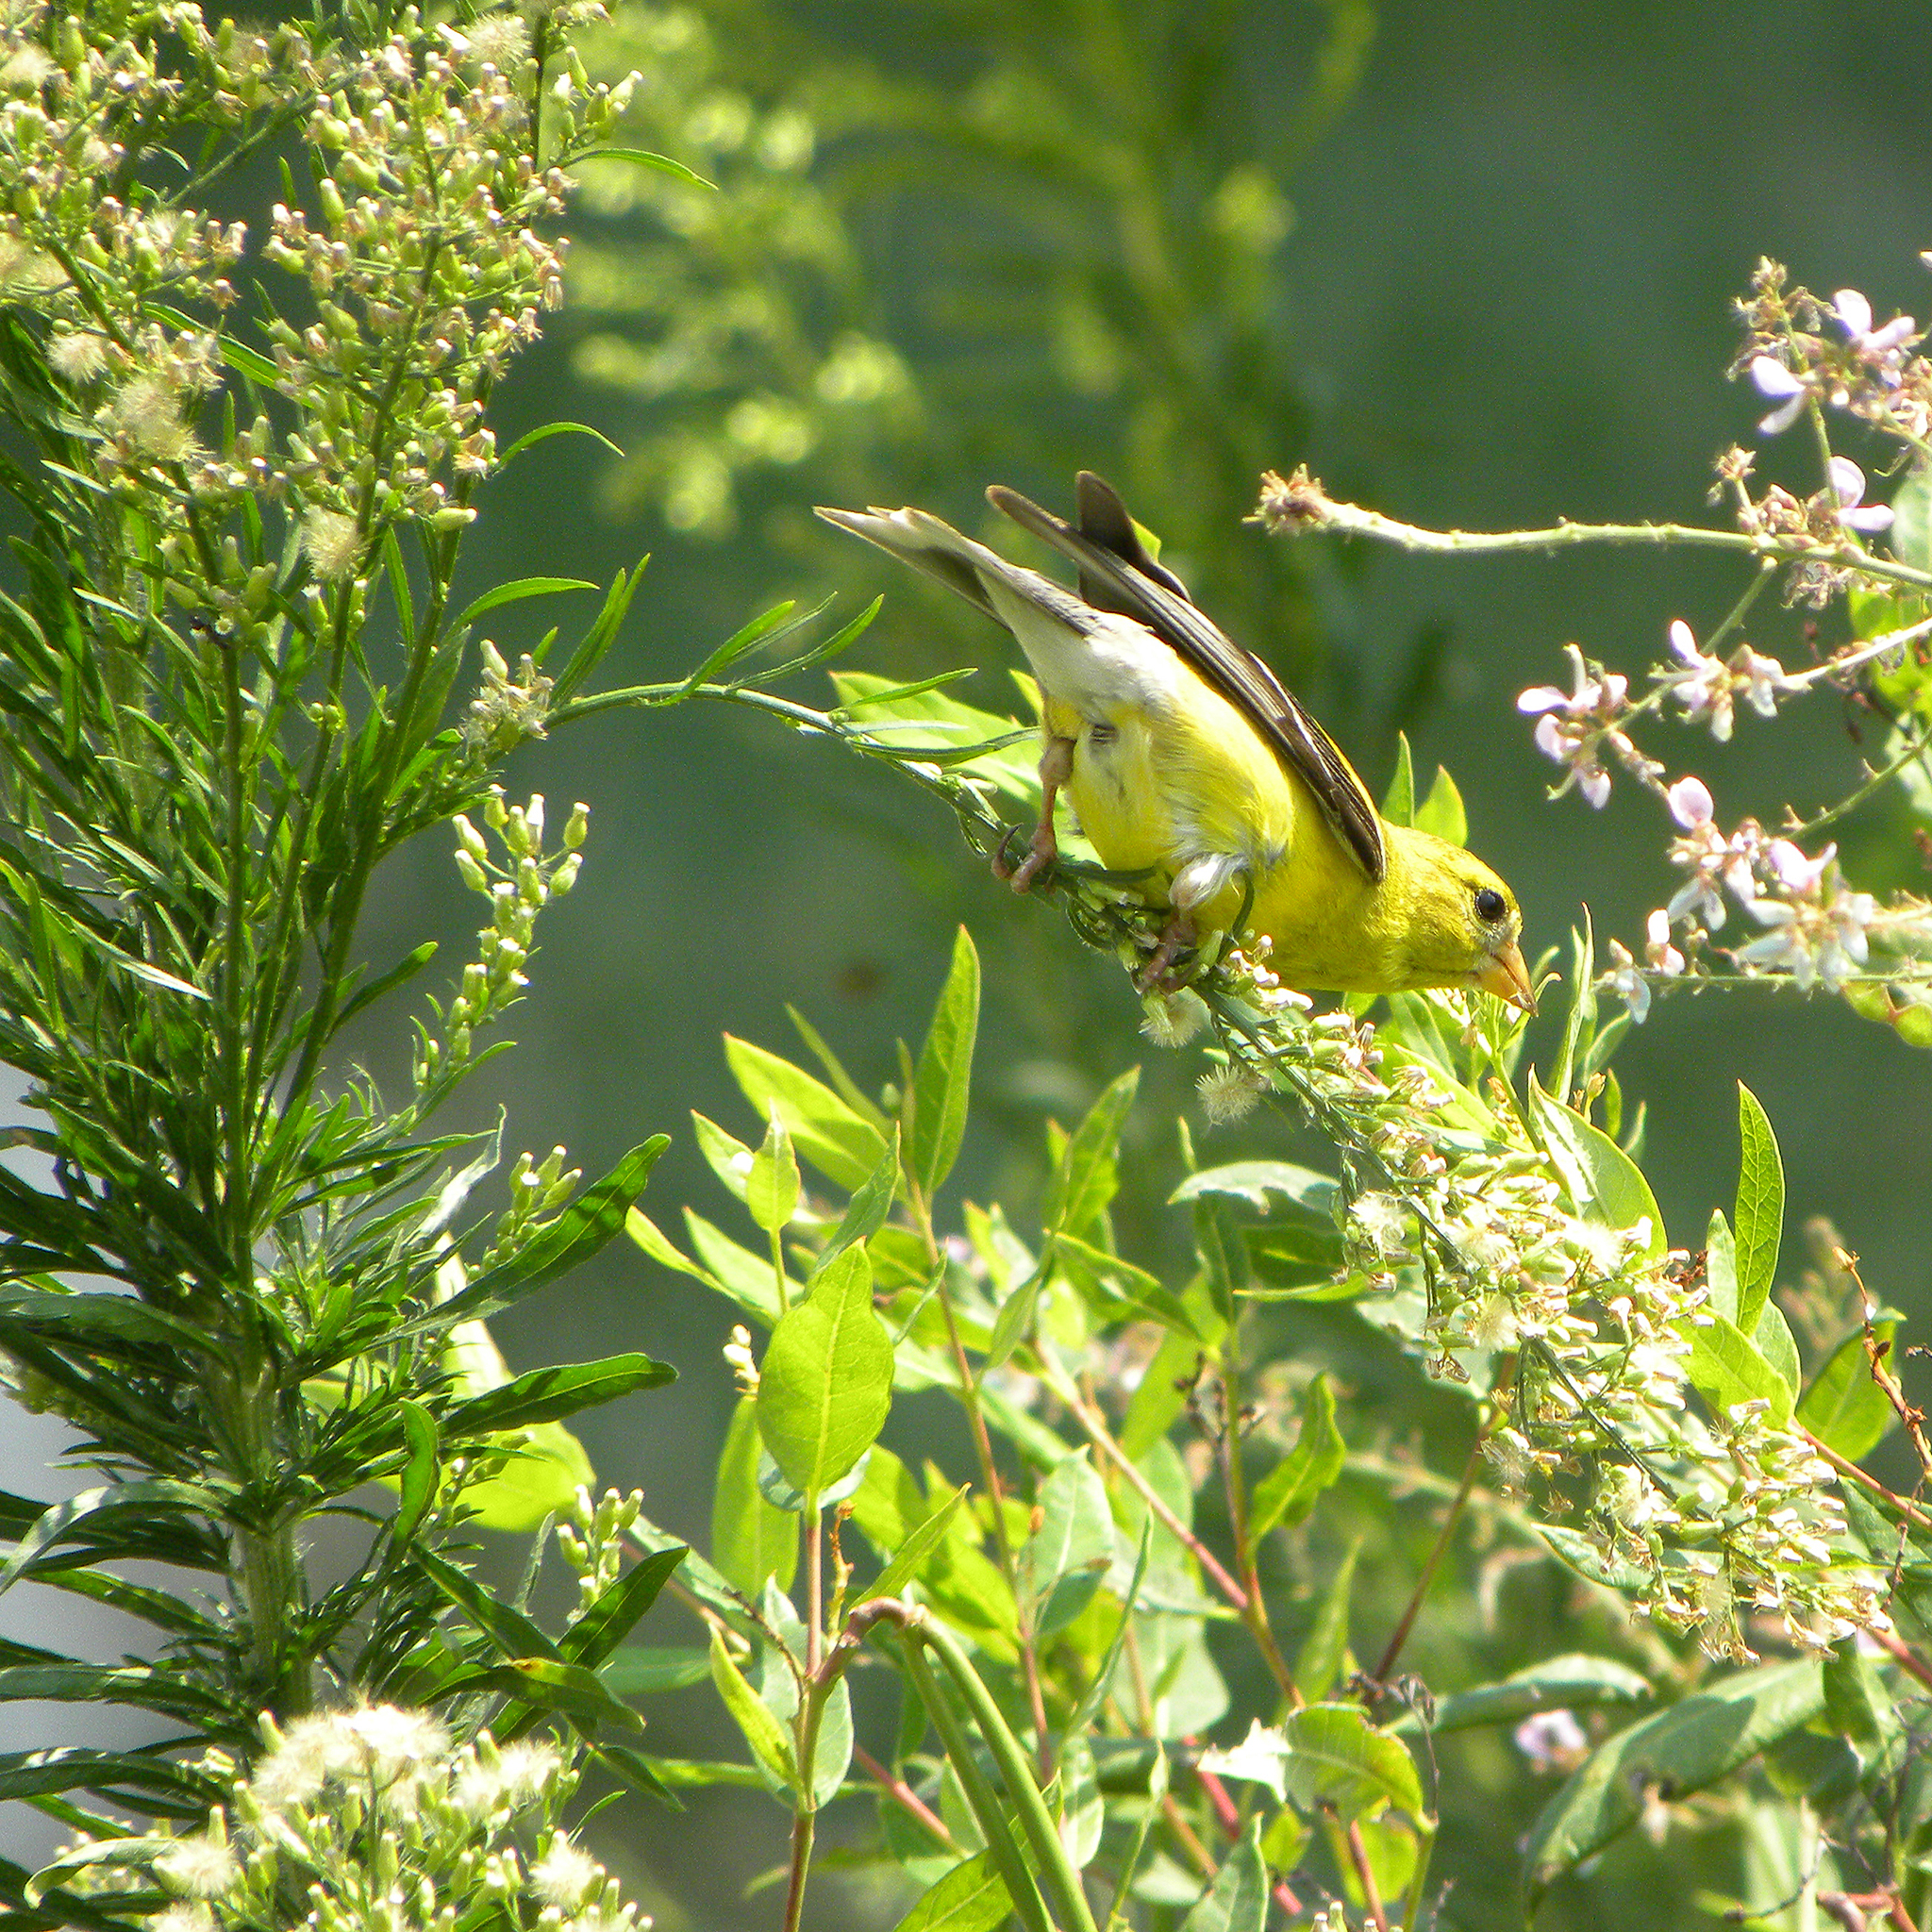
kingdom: Animalia
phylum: Chordata
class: Aves
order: Passeriformes
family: Fringillidae
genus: Spinus
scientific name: Spinus tristis
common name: American goldfinch
